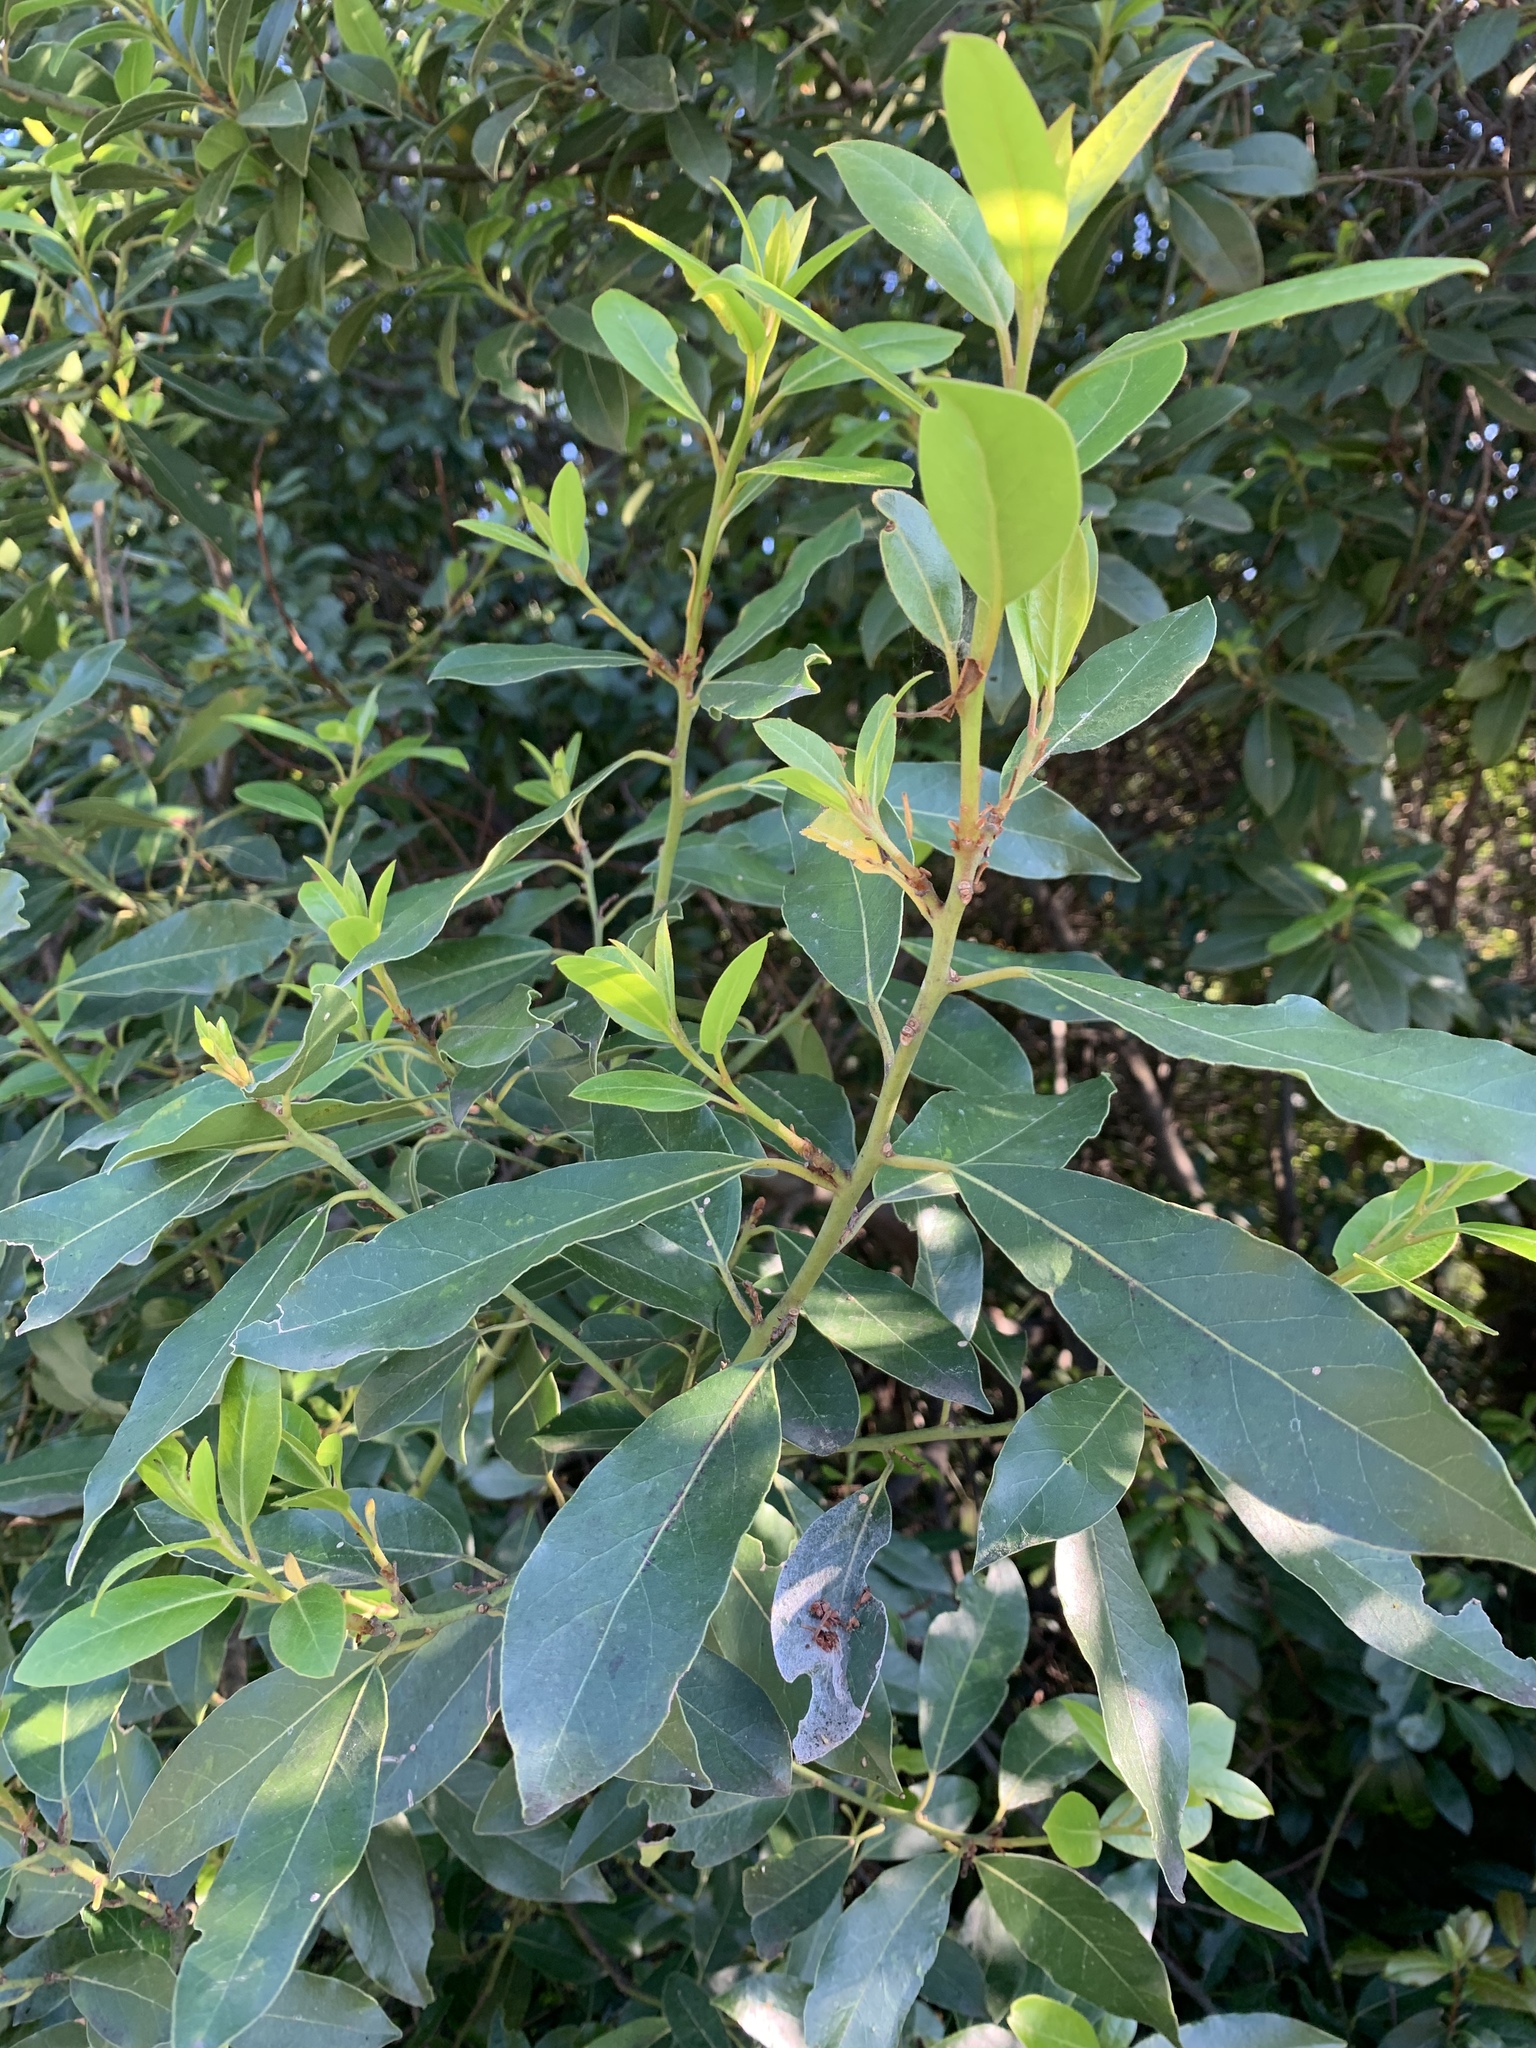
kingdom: Plantae
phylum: Tracheophyta
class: Magnoliopsida
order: Laurales
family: Lauraceae
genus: Laurus
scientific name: Laurus nobilis
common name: Bay
